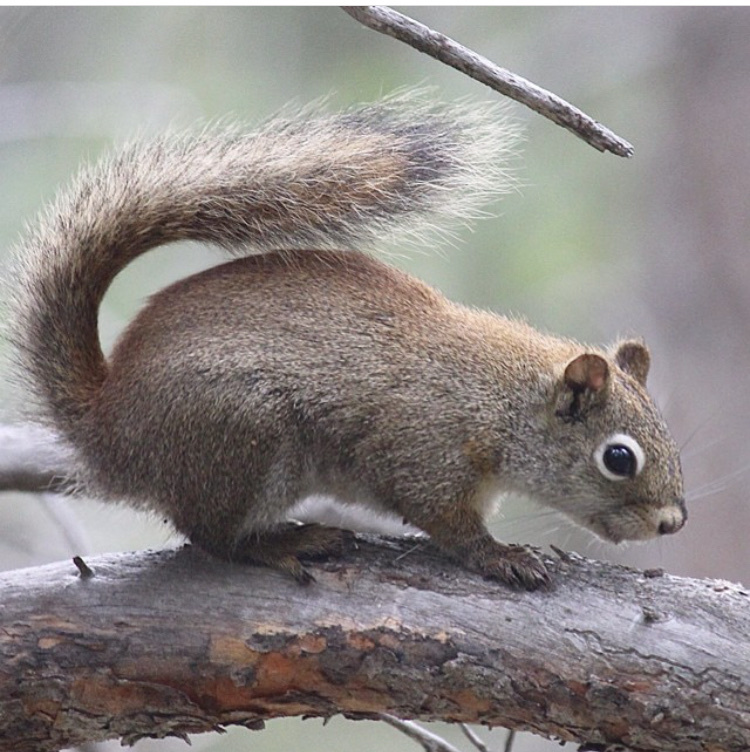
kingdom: Animalia
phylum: Chordata
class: Mammalia
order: Rodentia
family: Sciuridae
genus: Tamiasciurus
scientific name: Tamiasciurus hudsonicus
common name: Red squirrel
